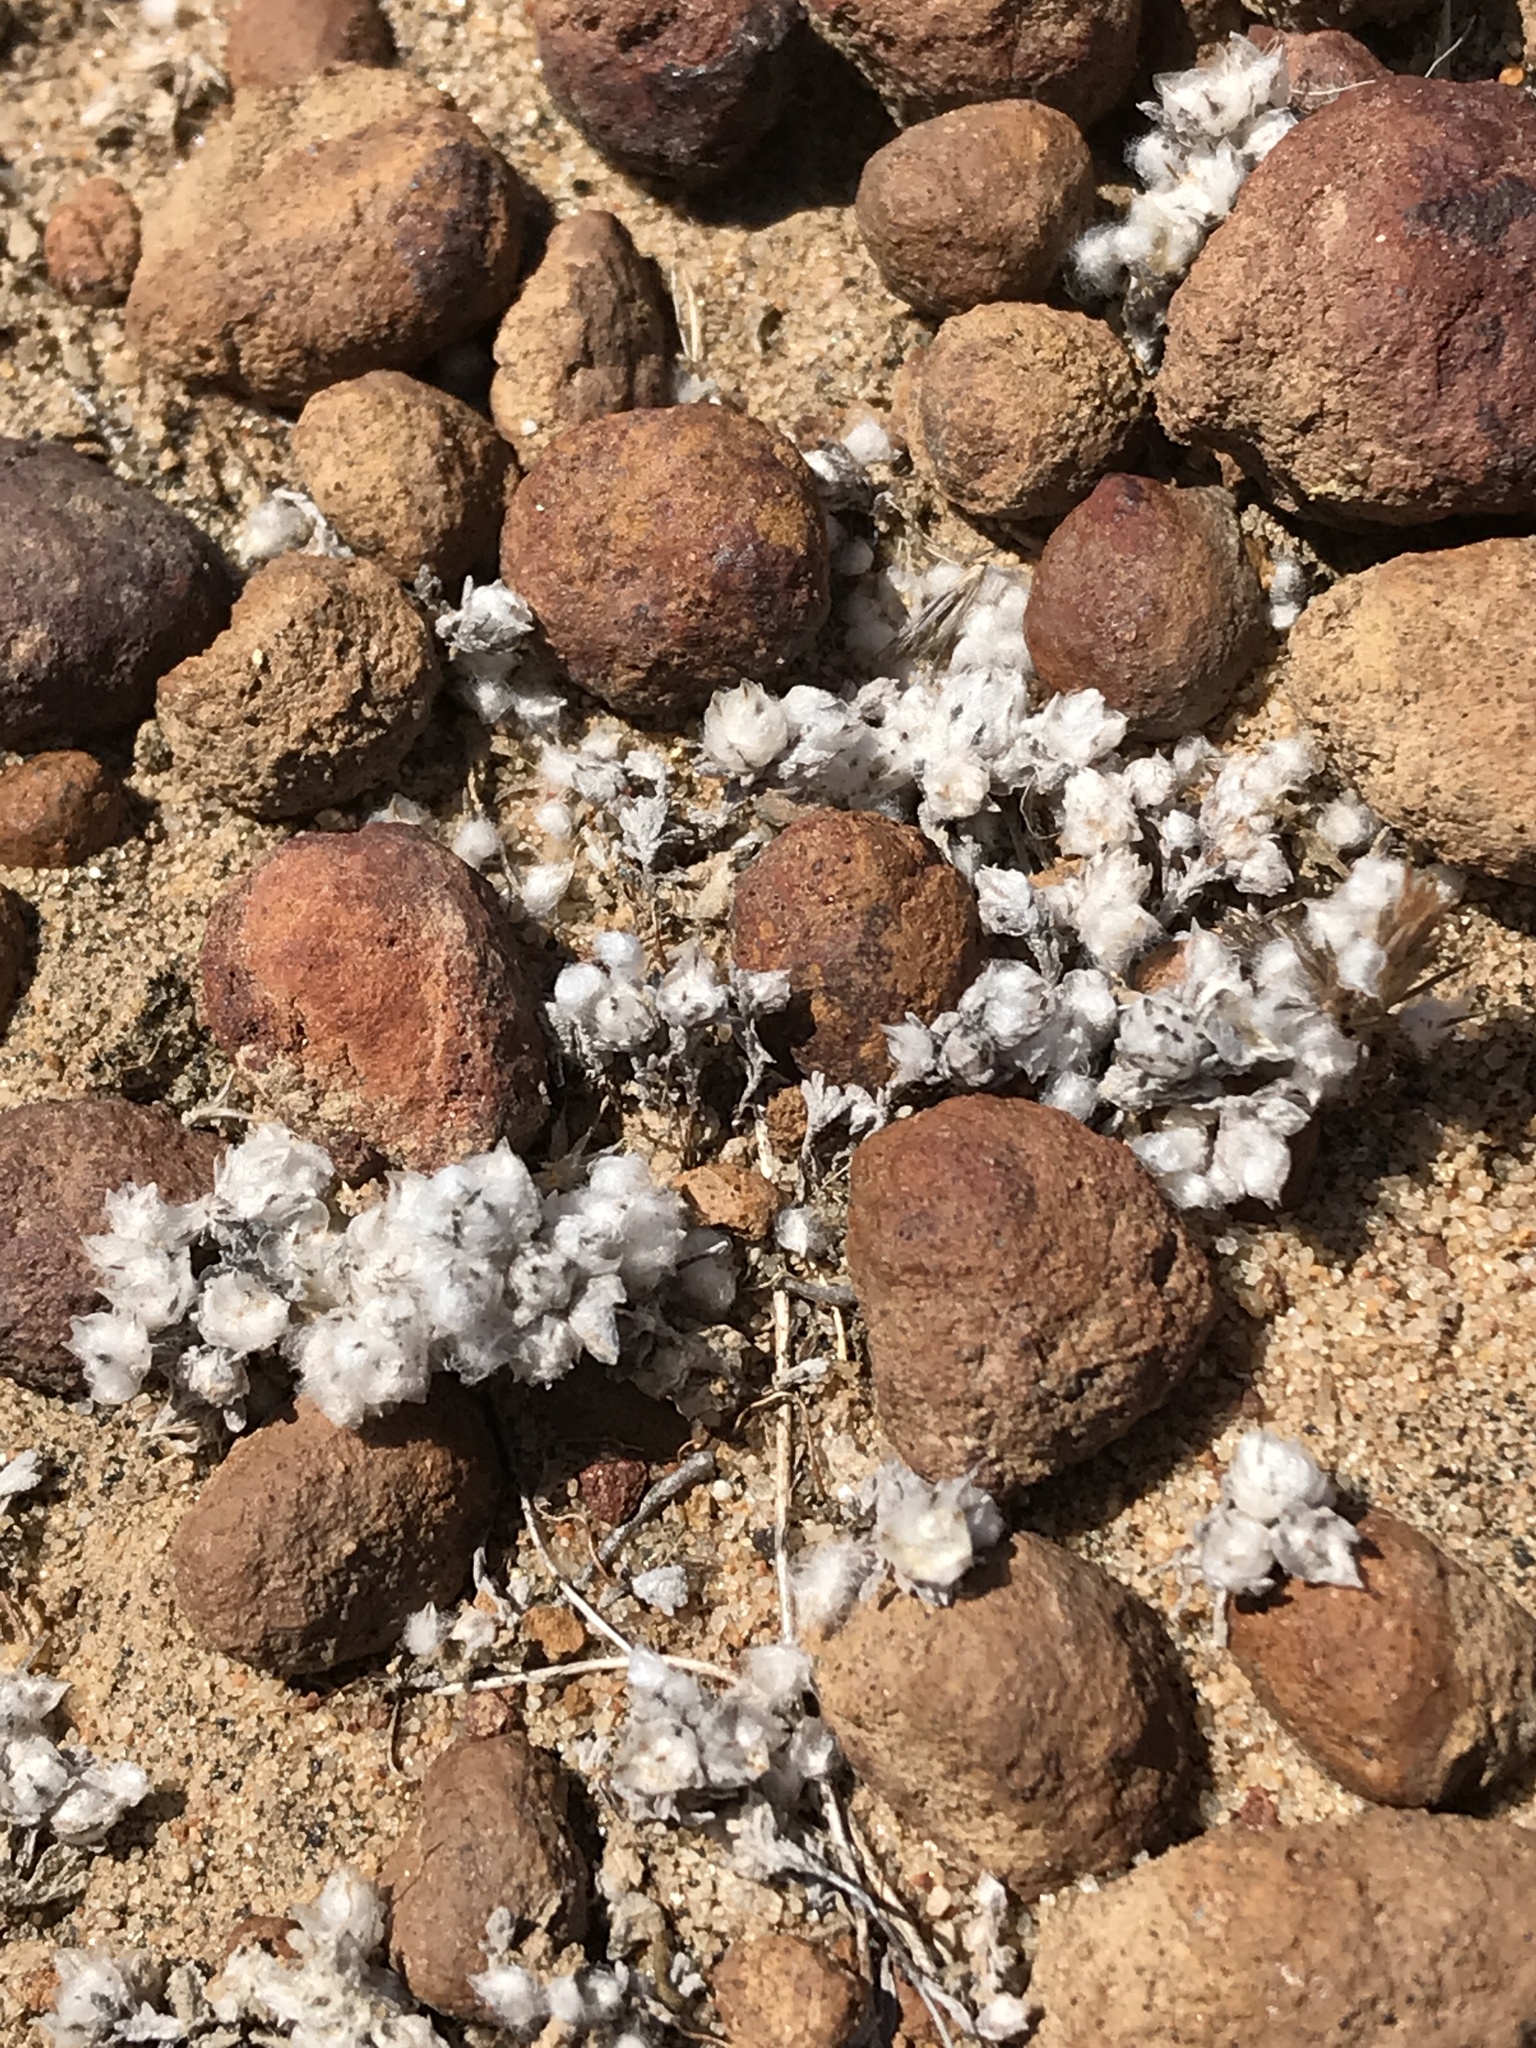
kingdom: Plantae
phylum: Tracheophyta
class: Magnoliopsida
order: Asterales
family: Asteraceae
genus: Stylocline
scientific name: Stylocline gnaphaloides
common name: Everlasting nest-straw
